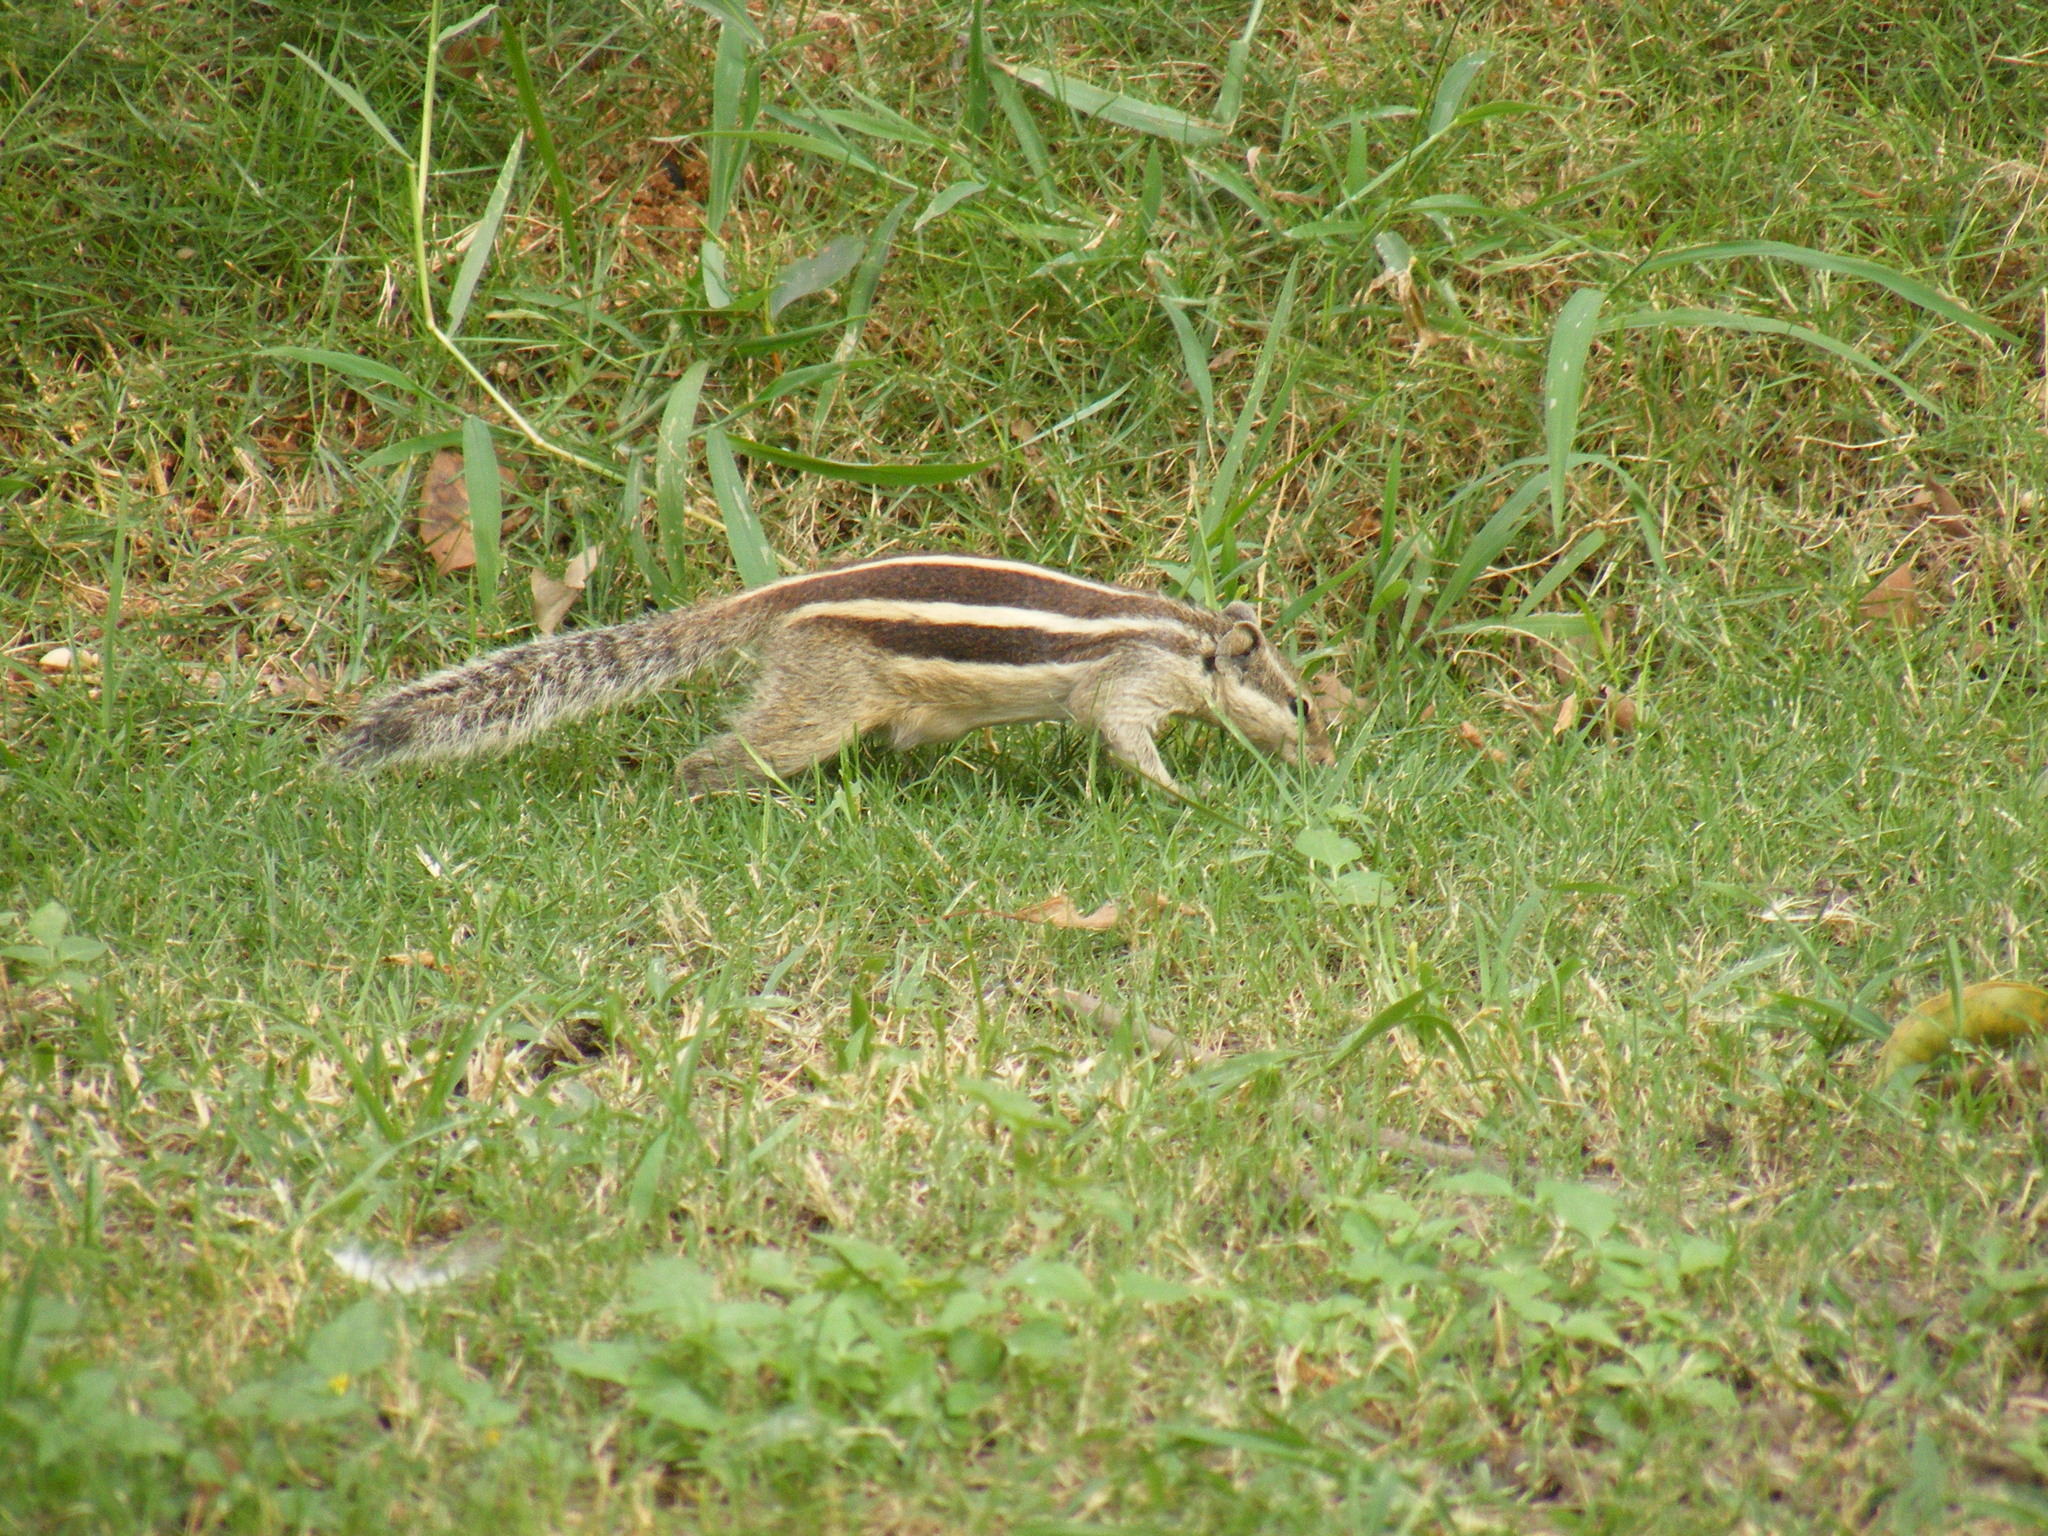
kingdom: Animalia
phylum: Chordata
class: Mammalia
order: Rodentia
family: Sciuridae
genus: Funambulus
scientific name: Funambulus pennantii
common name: Northern palm squirrel
